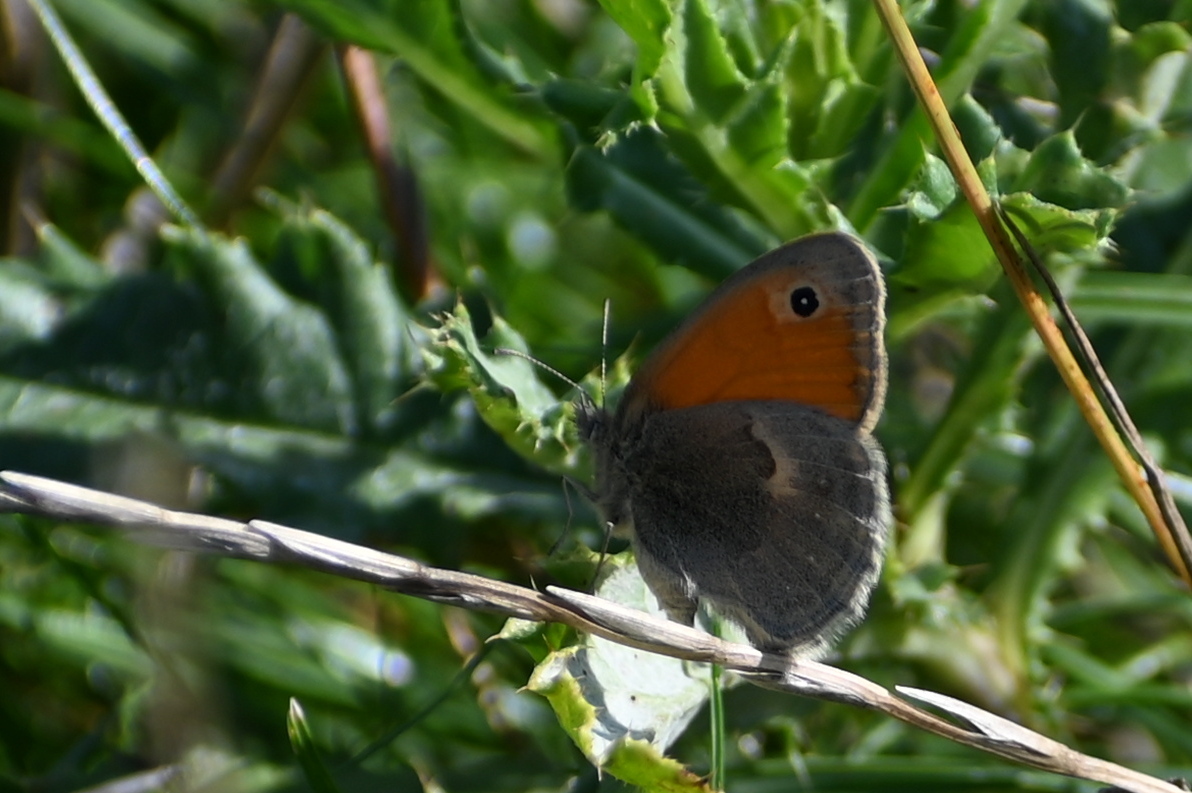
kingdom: Animalia
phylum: Arthropoda
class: Insecta
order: Lepidoptera
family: Nymphalidae
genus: Coenonympha
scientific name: Coenonympha pamphilus
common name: Small heath
